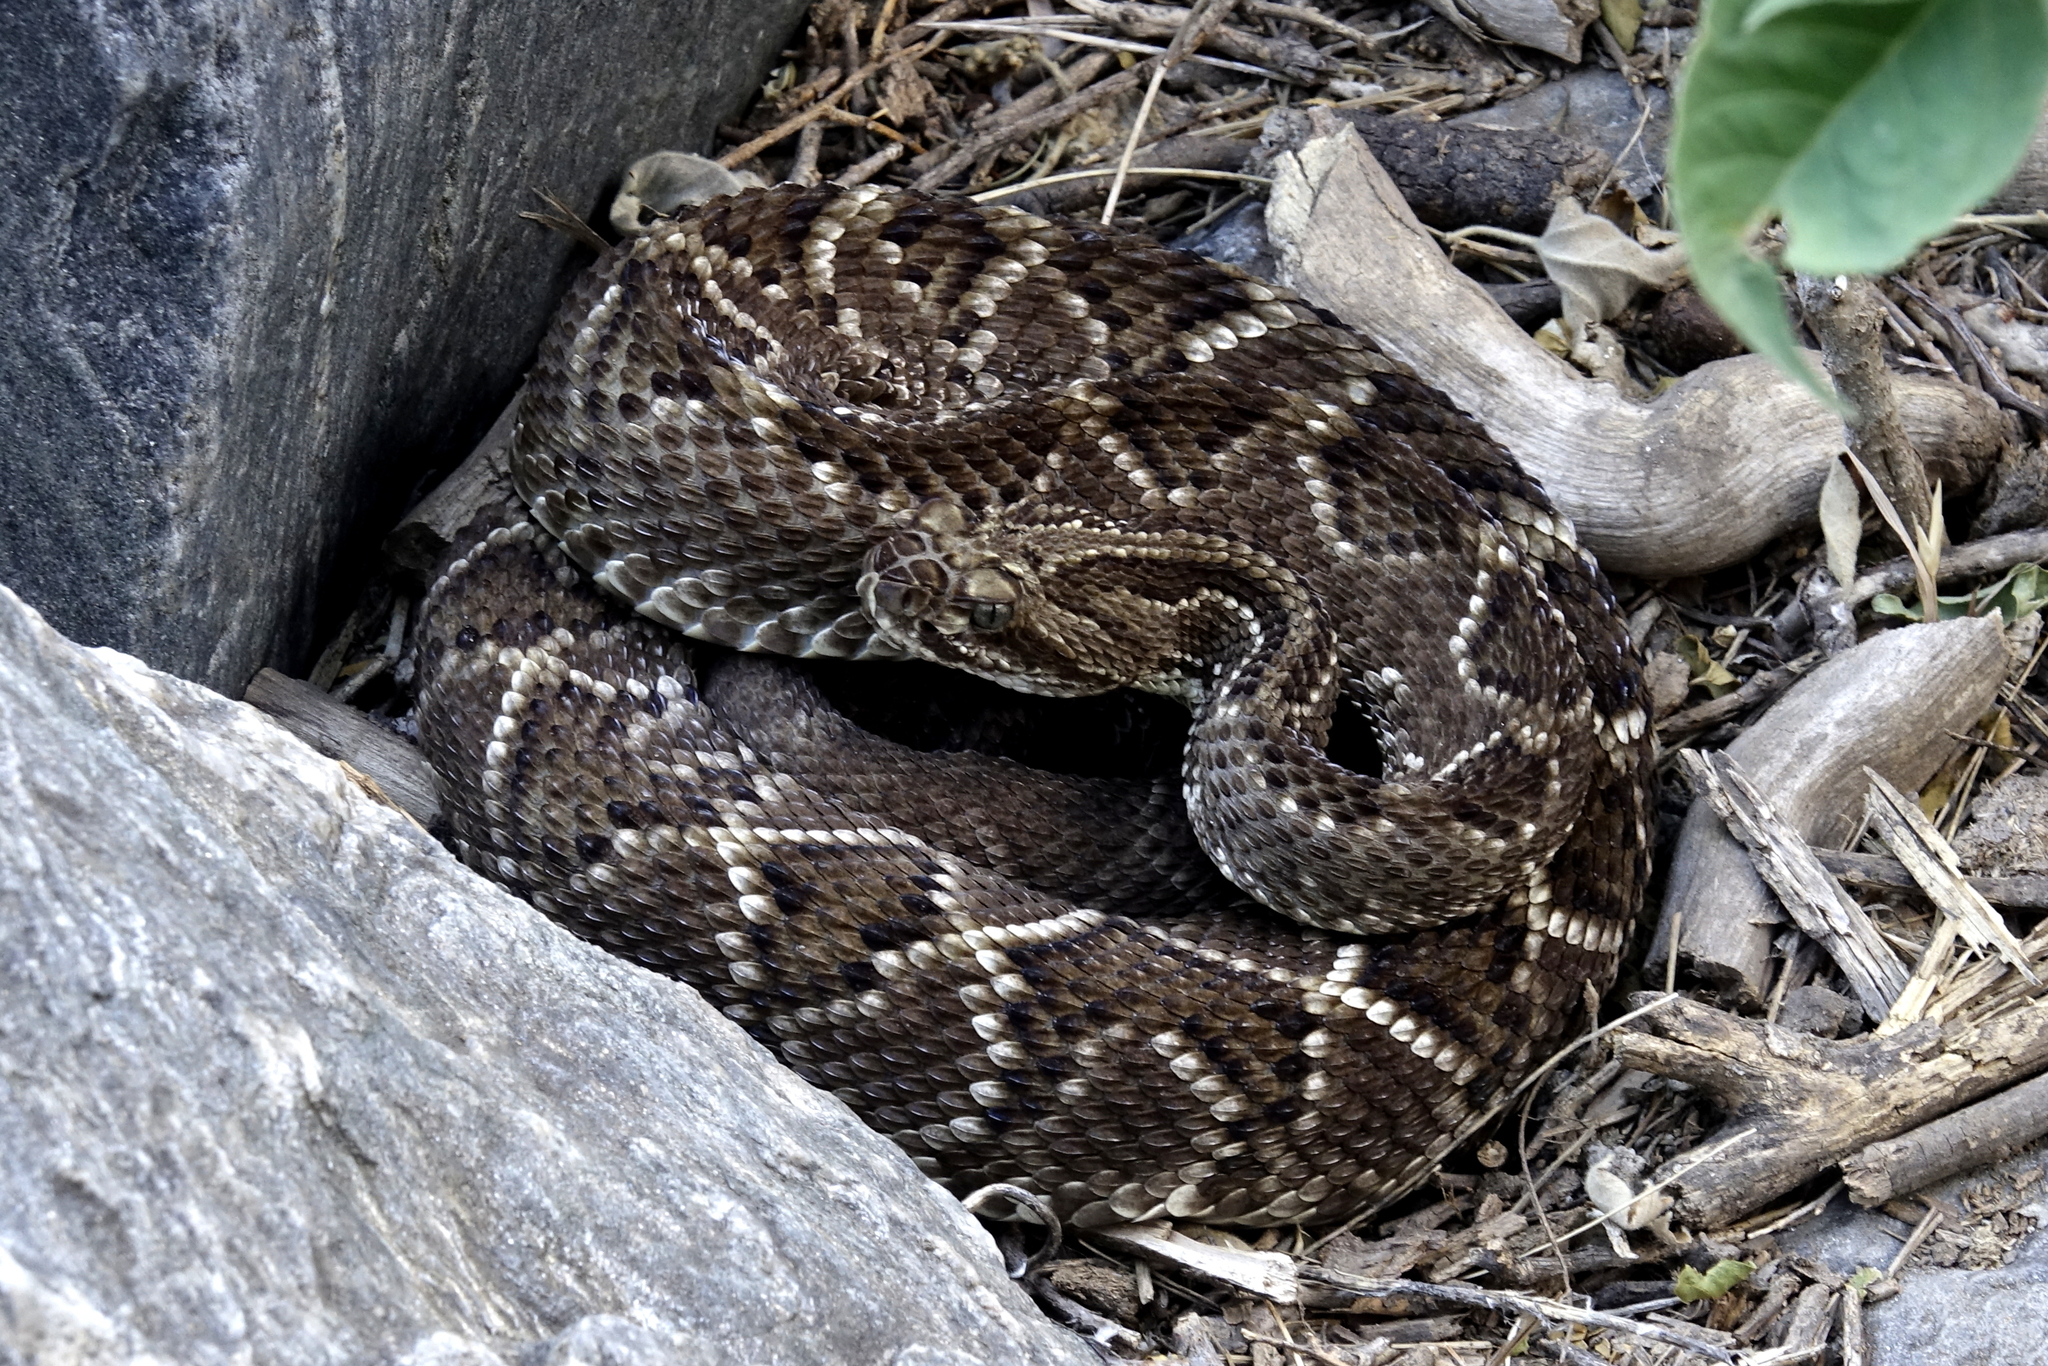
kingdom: Animalia
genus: Crotalus
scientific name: Crotalus durissus
